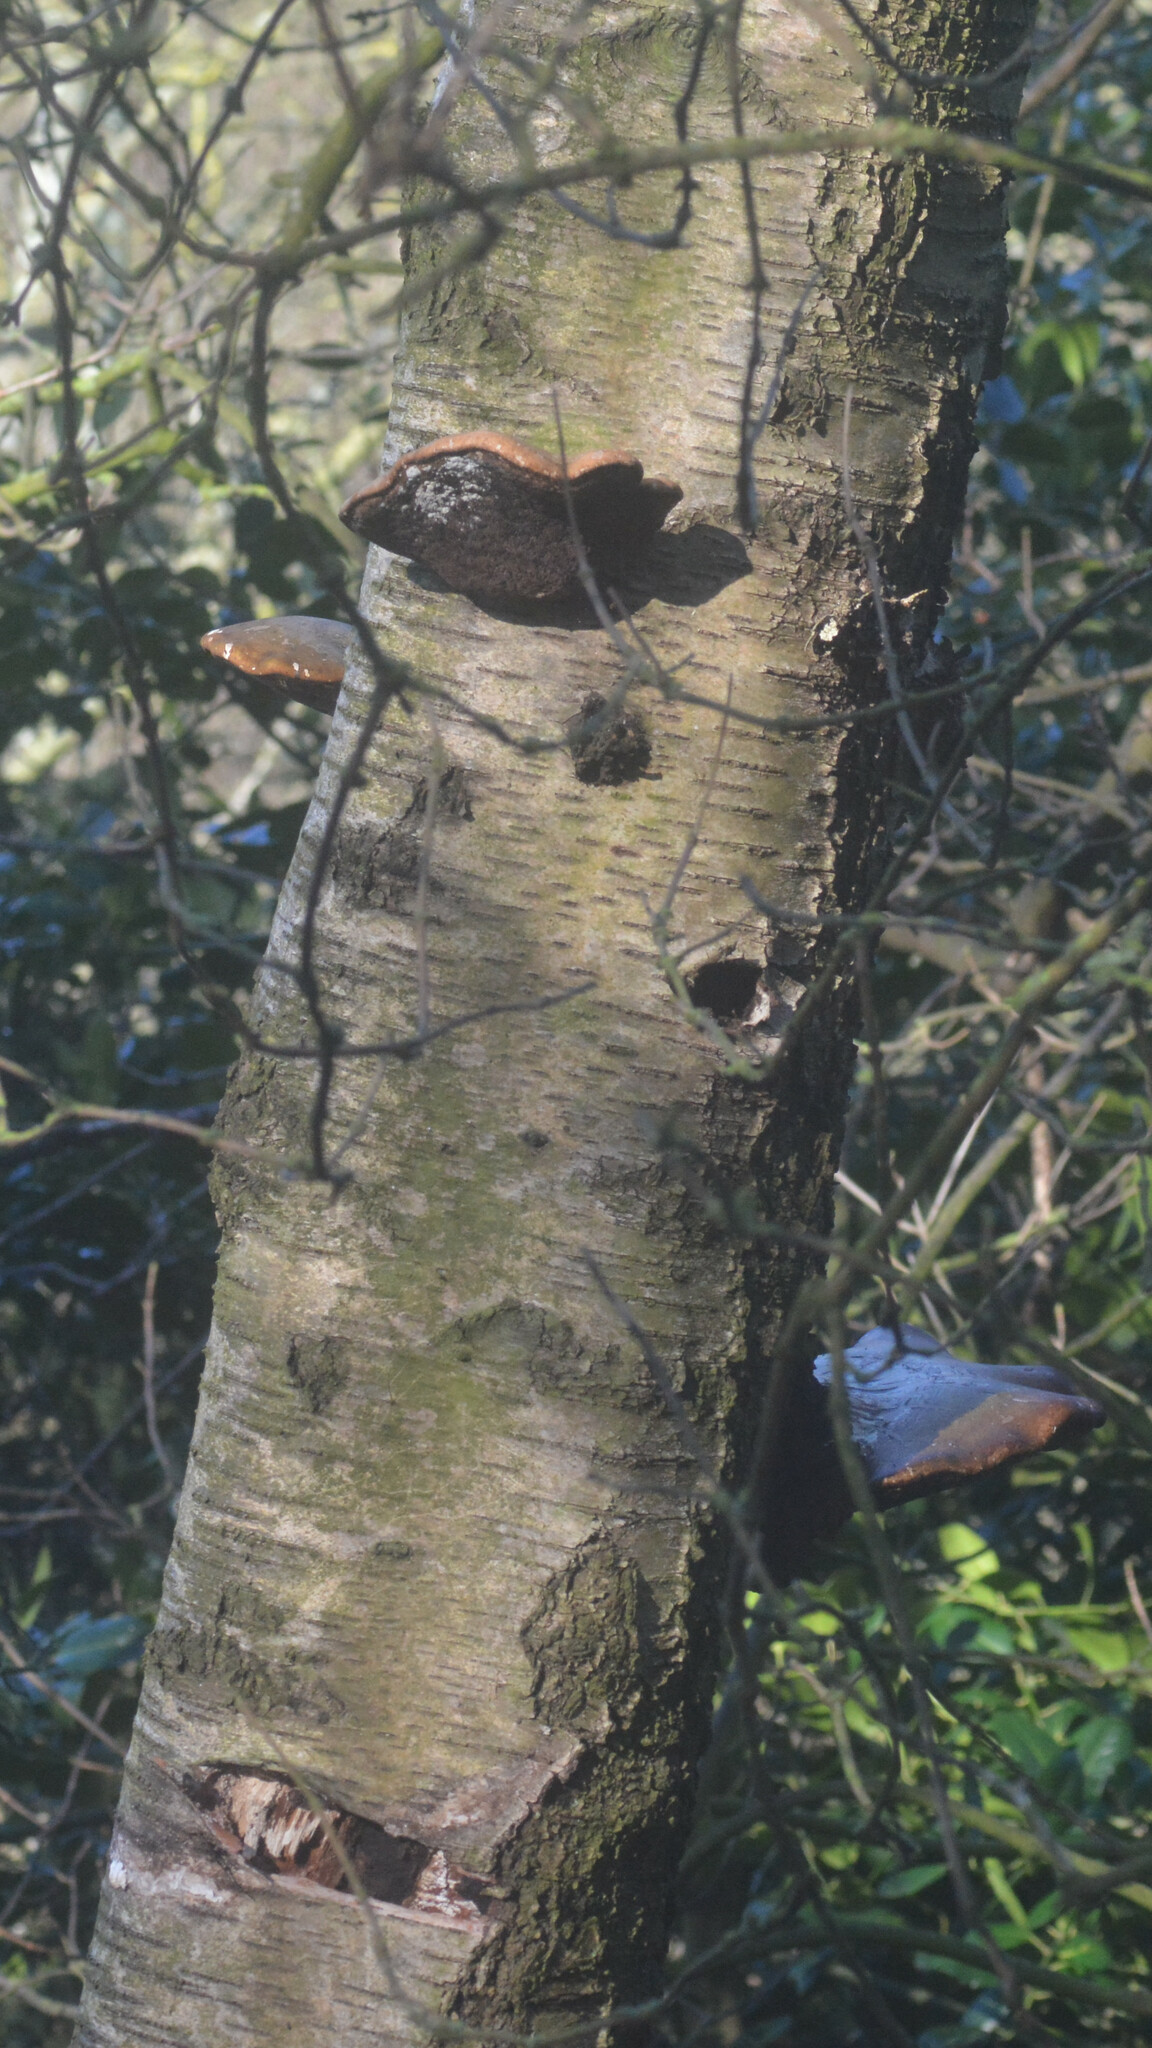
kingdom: Fungi
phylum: Basidiomycota
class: Agaricomycetes
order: Polyporales
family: Fomitopsidaceae
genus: Fomitopsis
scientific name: Fomitopsis betulina
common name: Birch polypore
